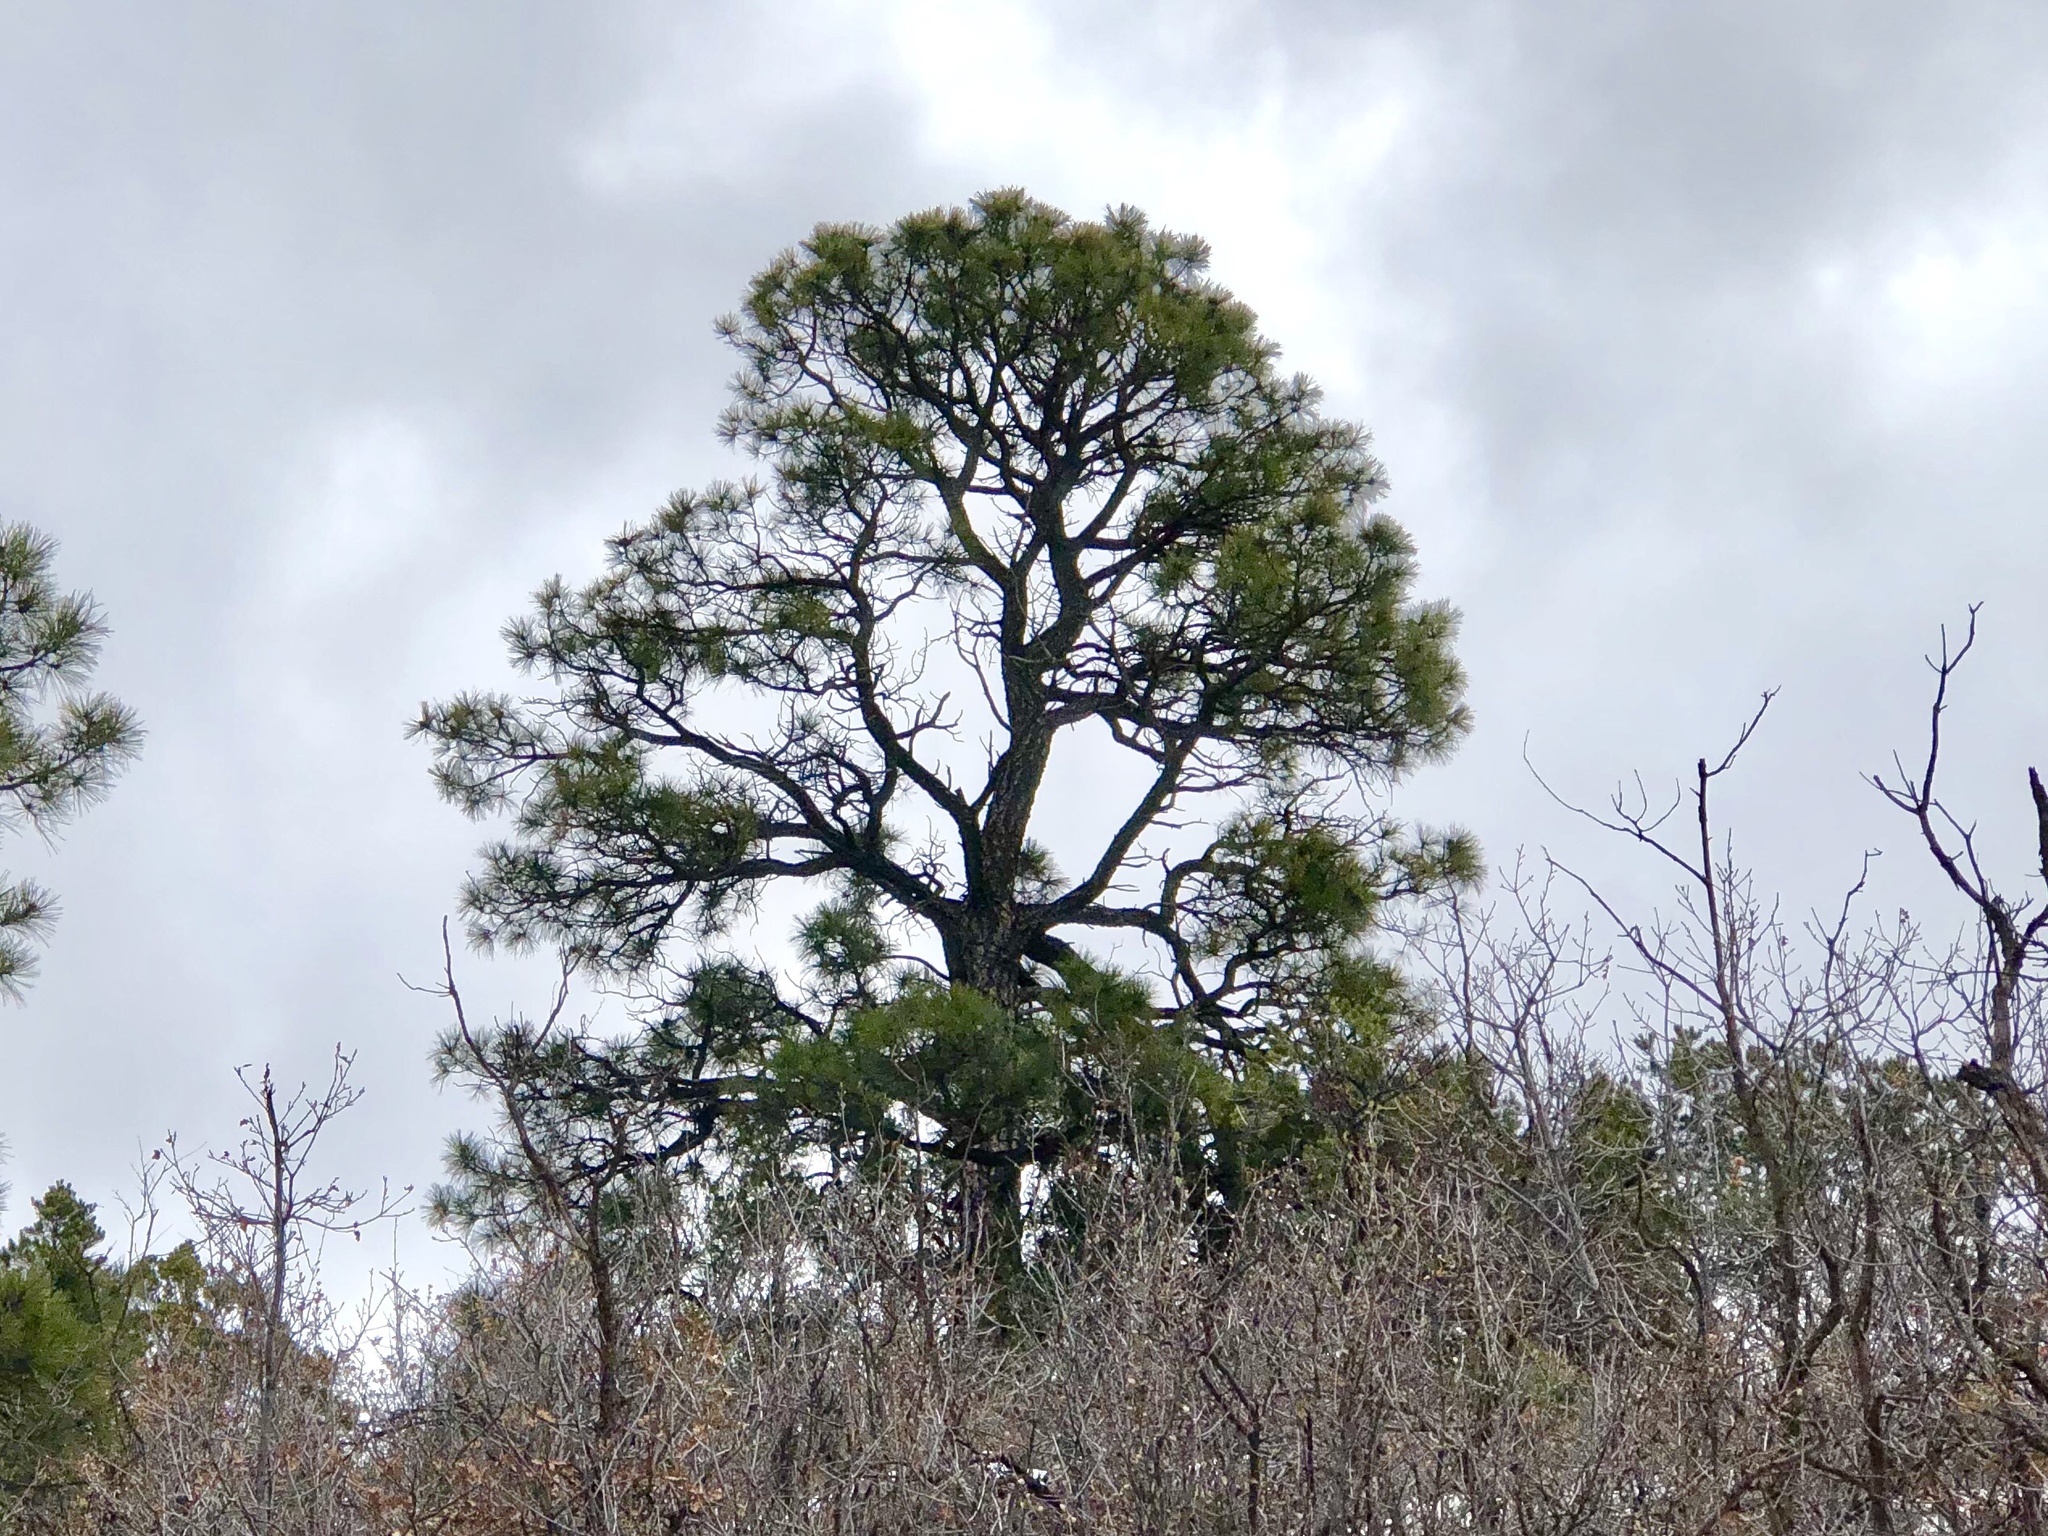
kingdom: Plantae
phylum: Tracheophyta
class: Pinopsida
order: Pinales
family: Pinaceae
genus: Pinus
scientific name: Pinus ponderosa
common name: Western yellow-pine
